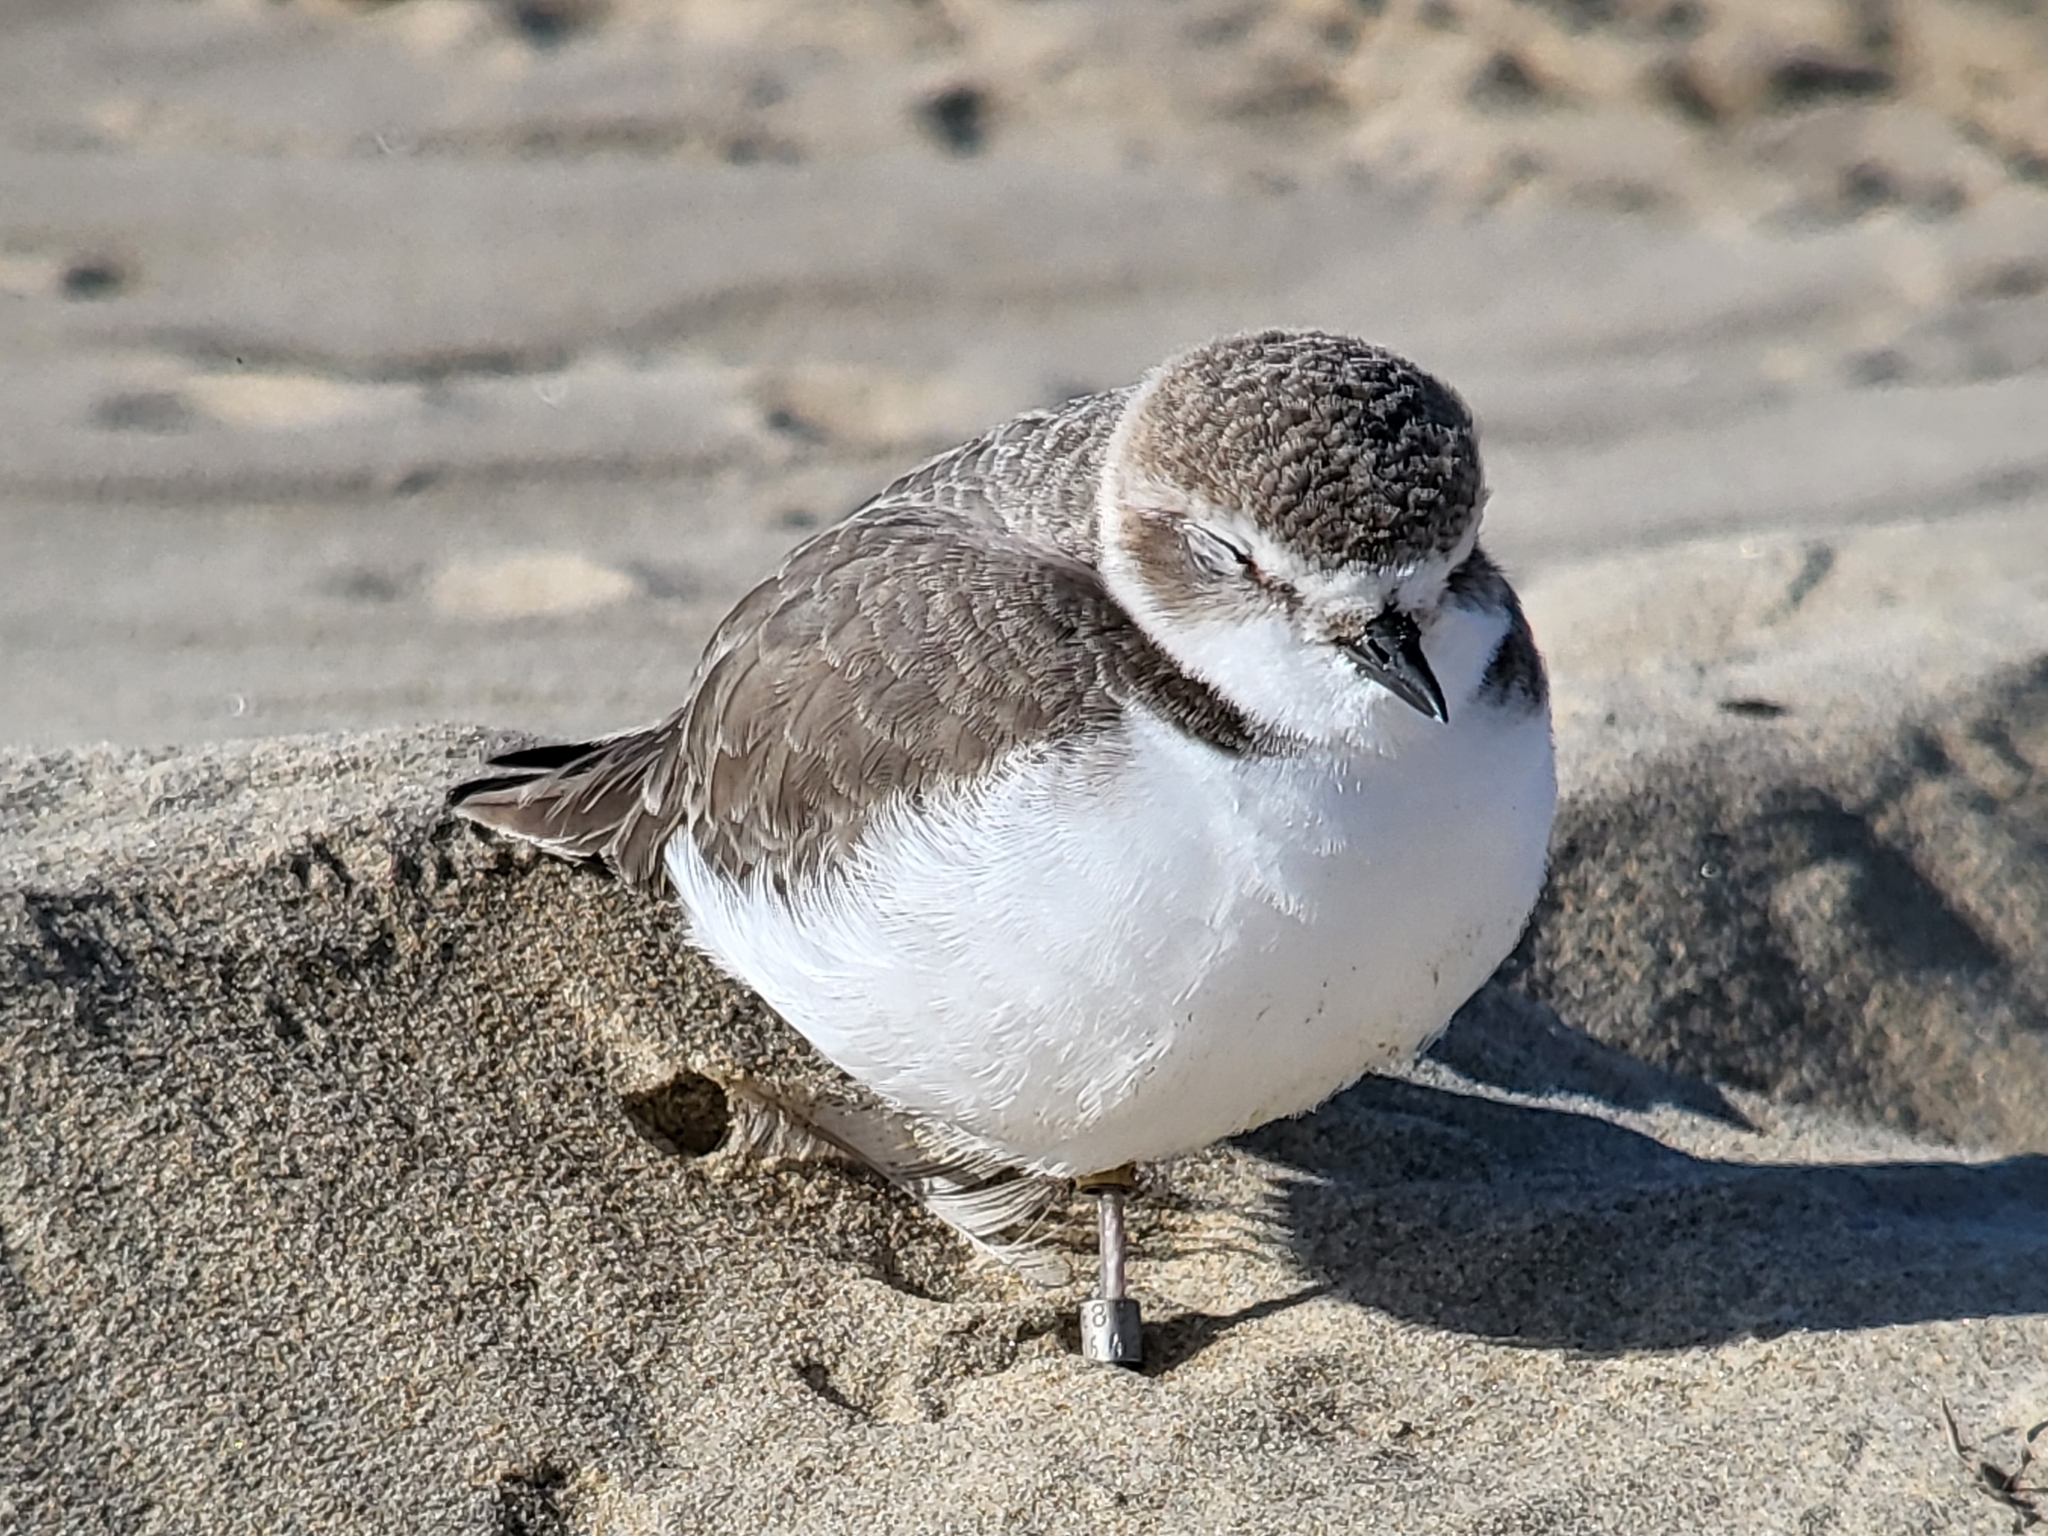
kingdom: Animalia
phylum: Chordata
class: Aves
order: Charadriiformes
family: Charadriidae
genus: Anarhynchus
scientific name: Anarhynchus
